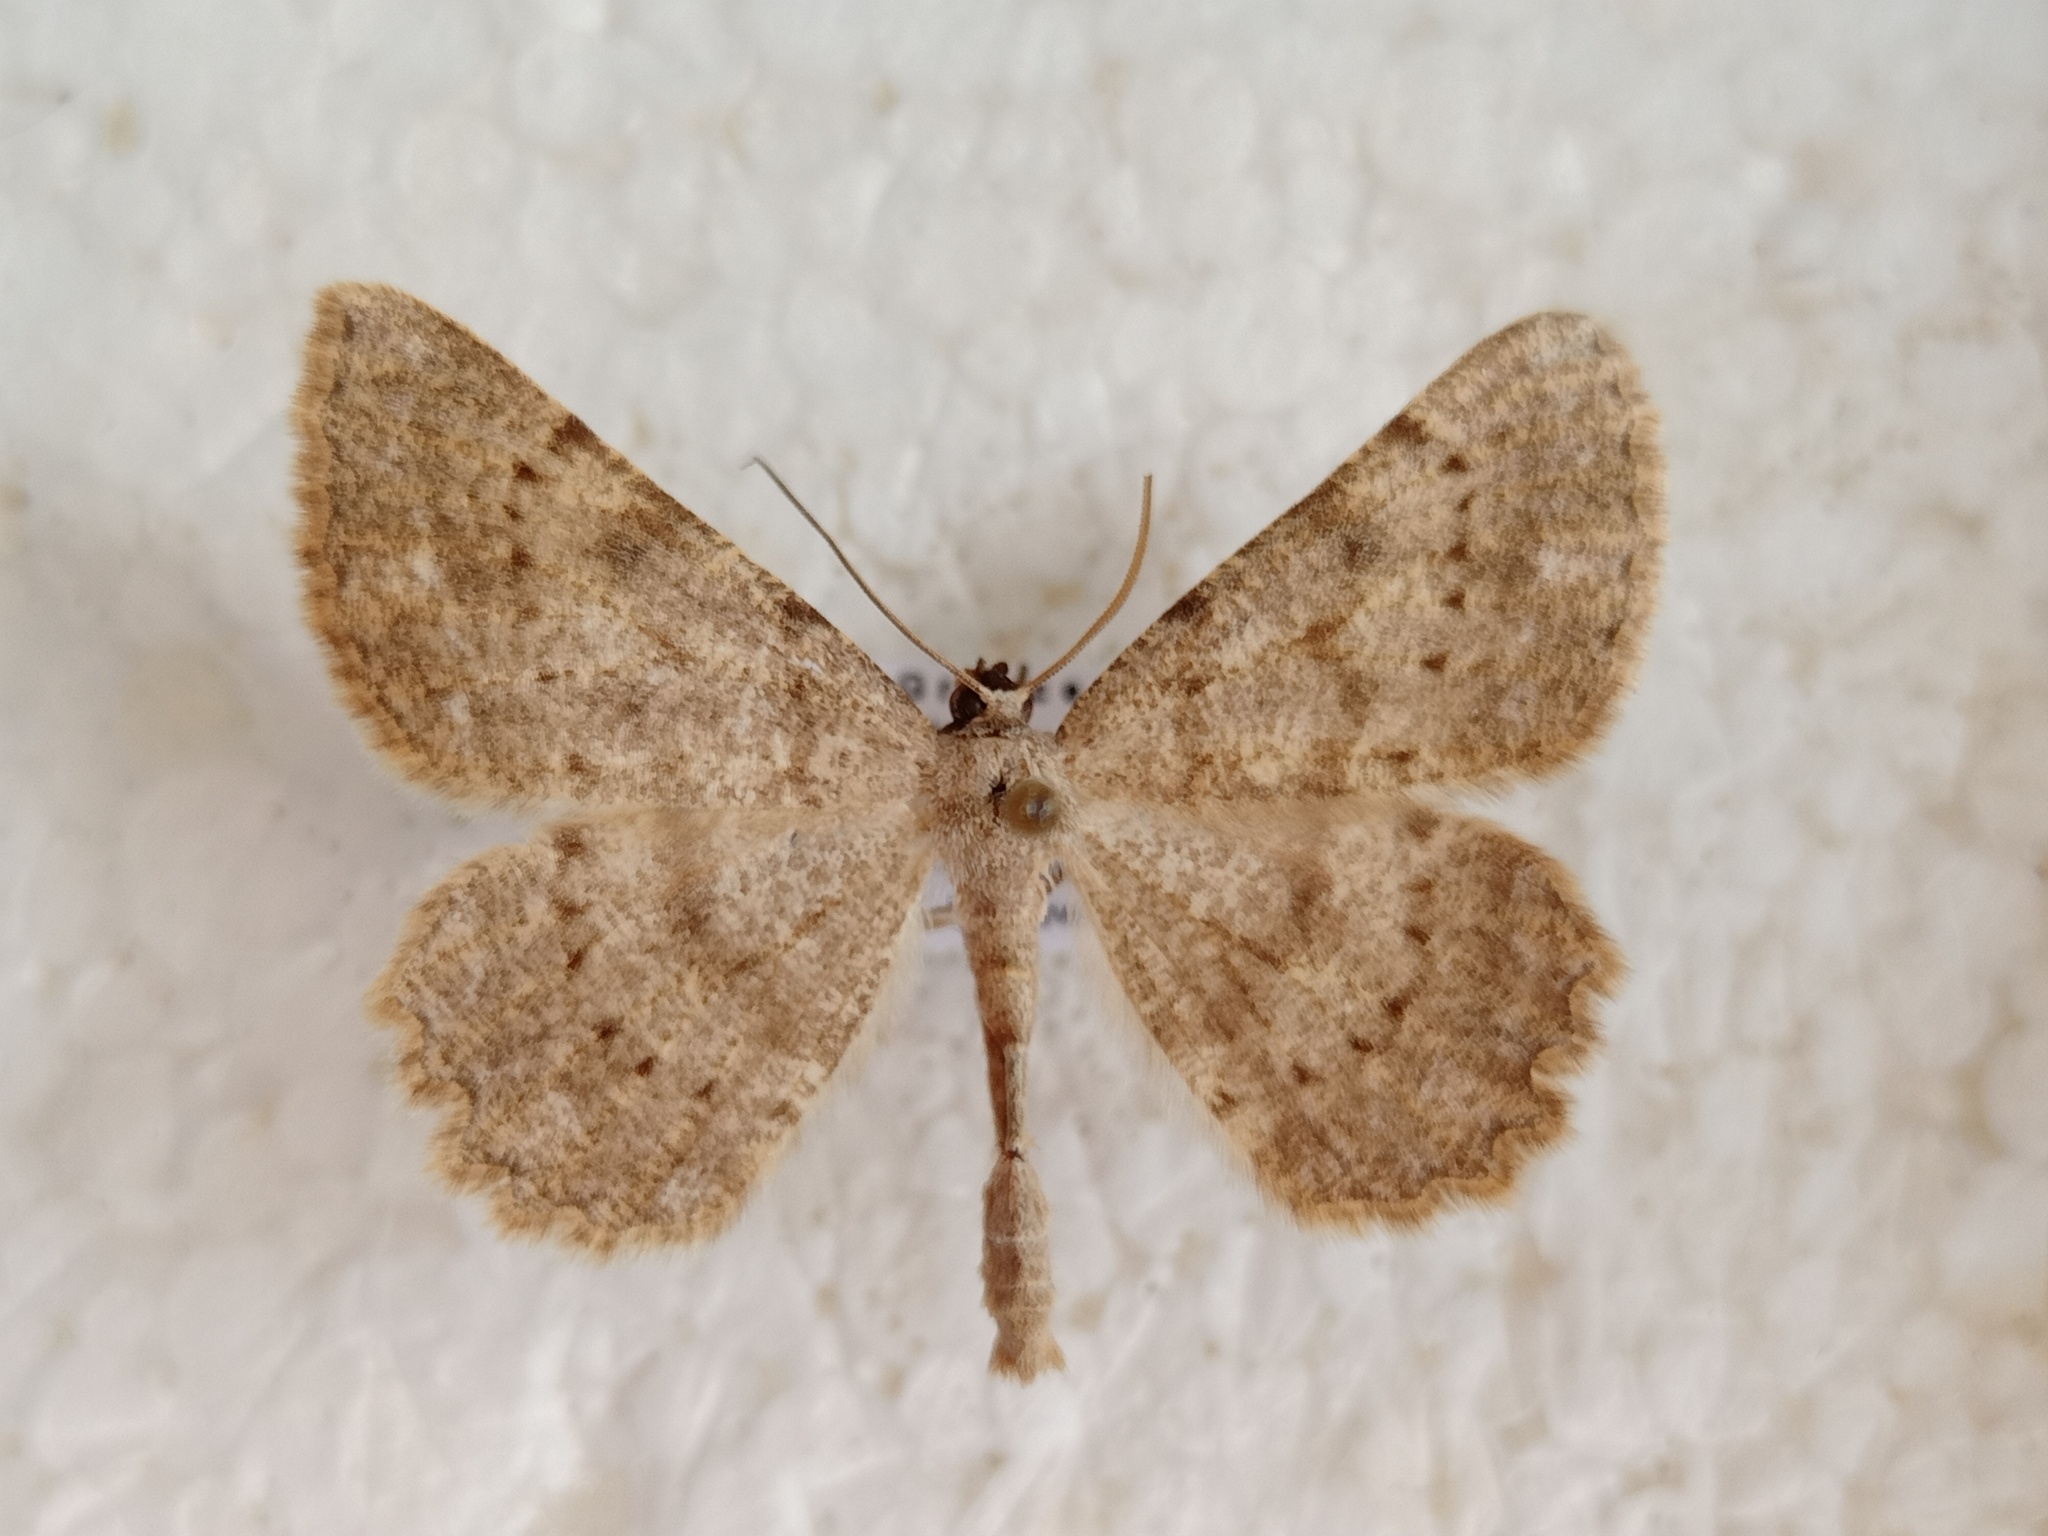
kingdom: Animalia
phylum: Arthropoda
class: Insecta
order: Lepidoptera
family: Geometridae
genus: Gnophos
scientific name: Gnophos sartata
